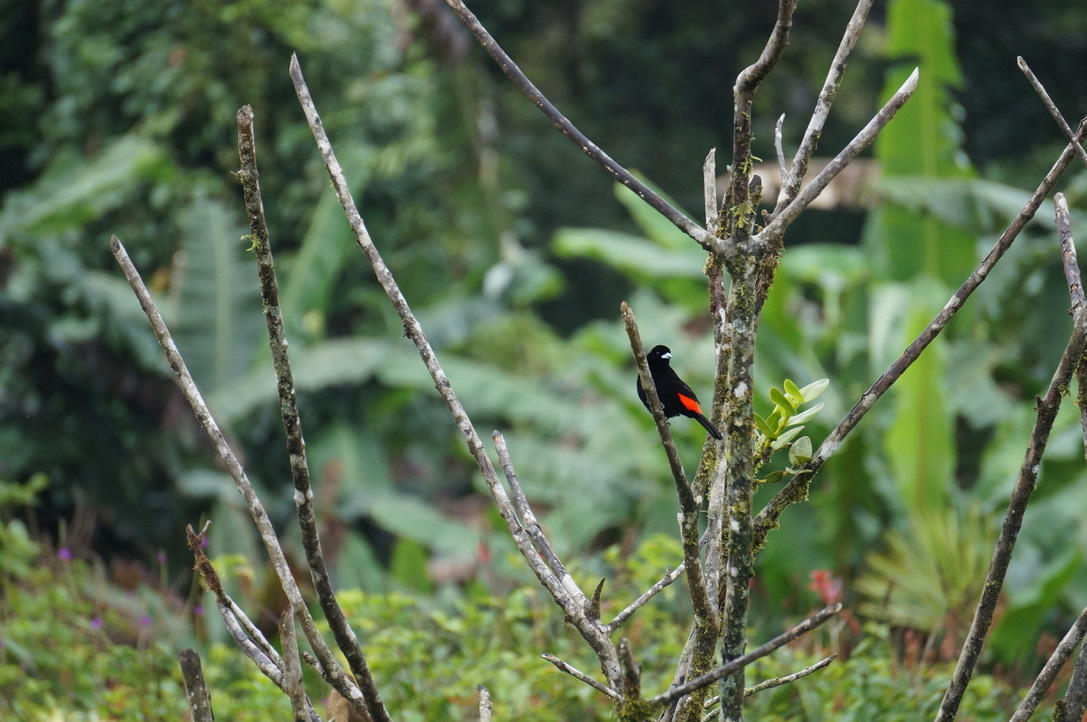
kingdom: Animalia
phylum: Chordata
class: Aves
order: Passeriformes
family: Thraupidae
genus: Ramphocelus
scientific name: Ramphocelus passerinii
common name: Passerini's tanager
